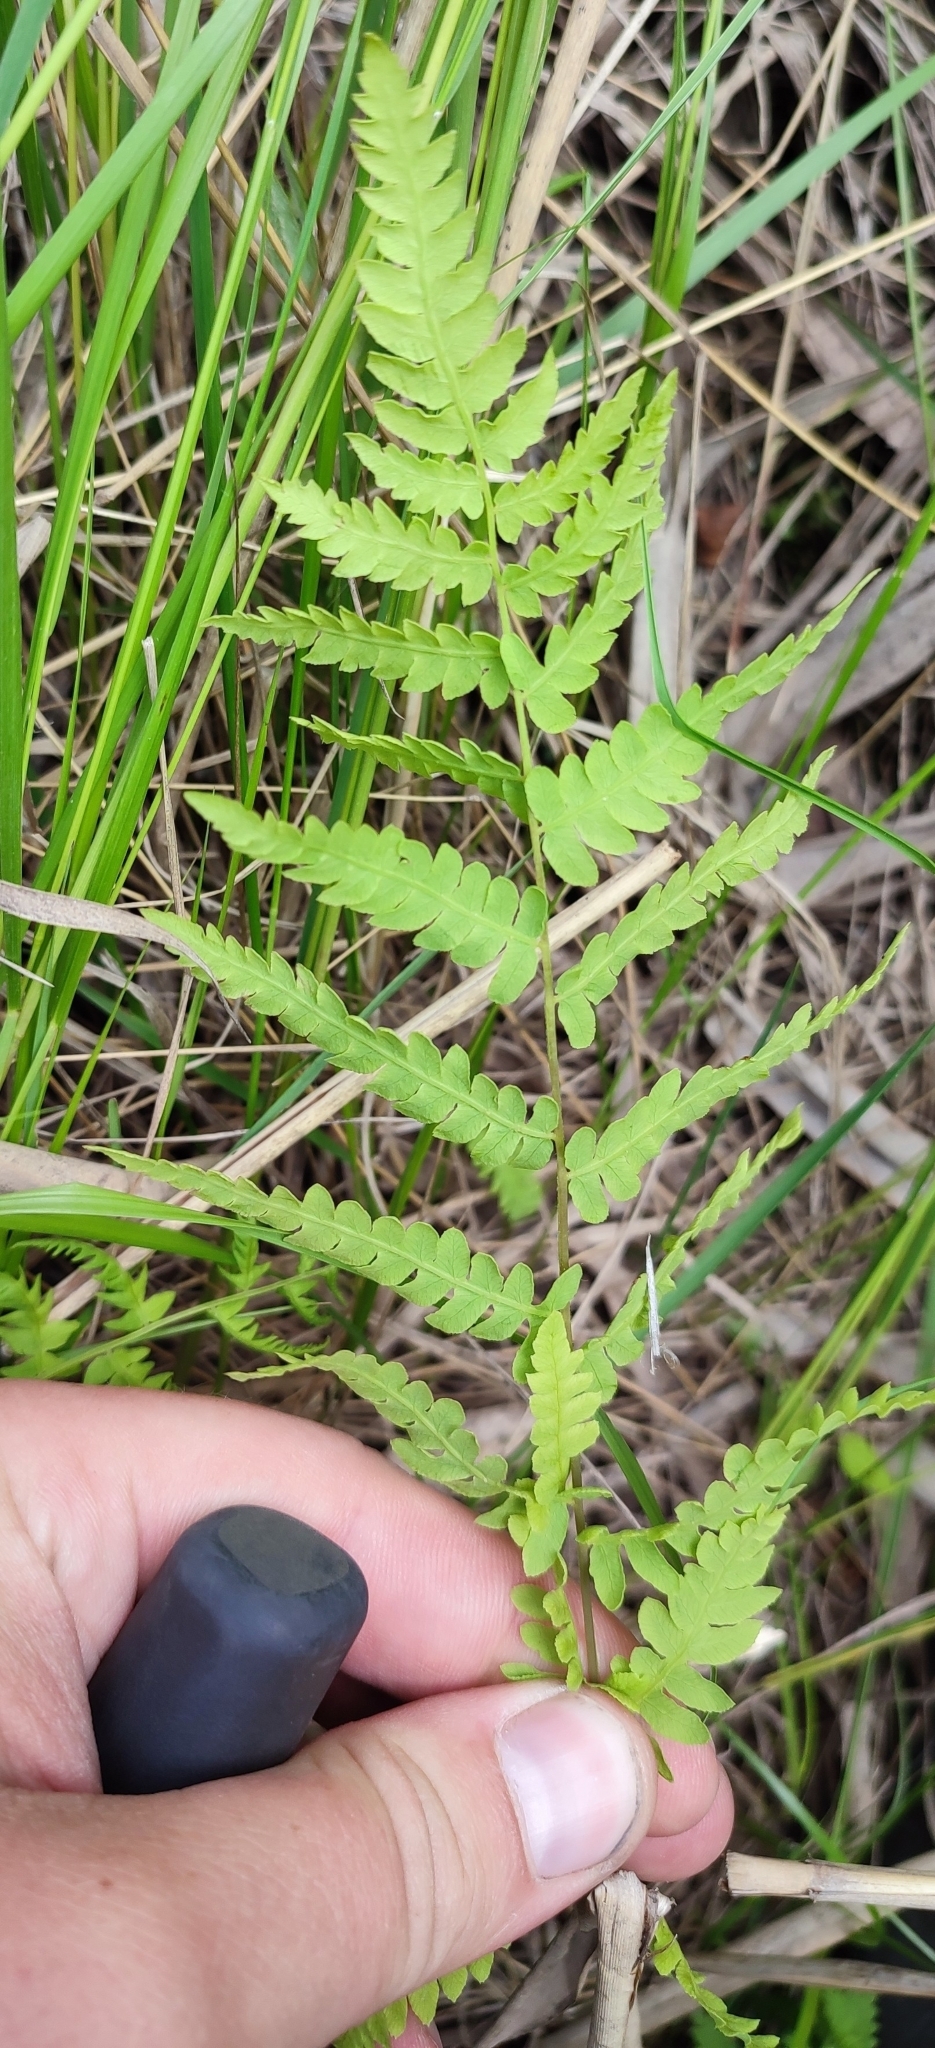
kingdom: Plantae
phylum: Tracheophyta
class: Polypodiopsida
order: Polypodiales
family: Thelypteridaceae
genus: Thelypteris
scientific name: Thelypteris palustris
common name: Marsh fern
